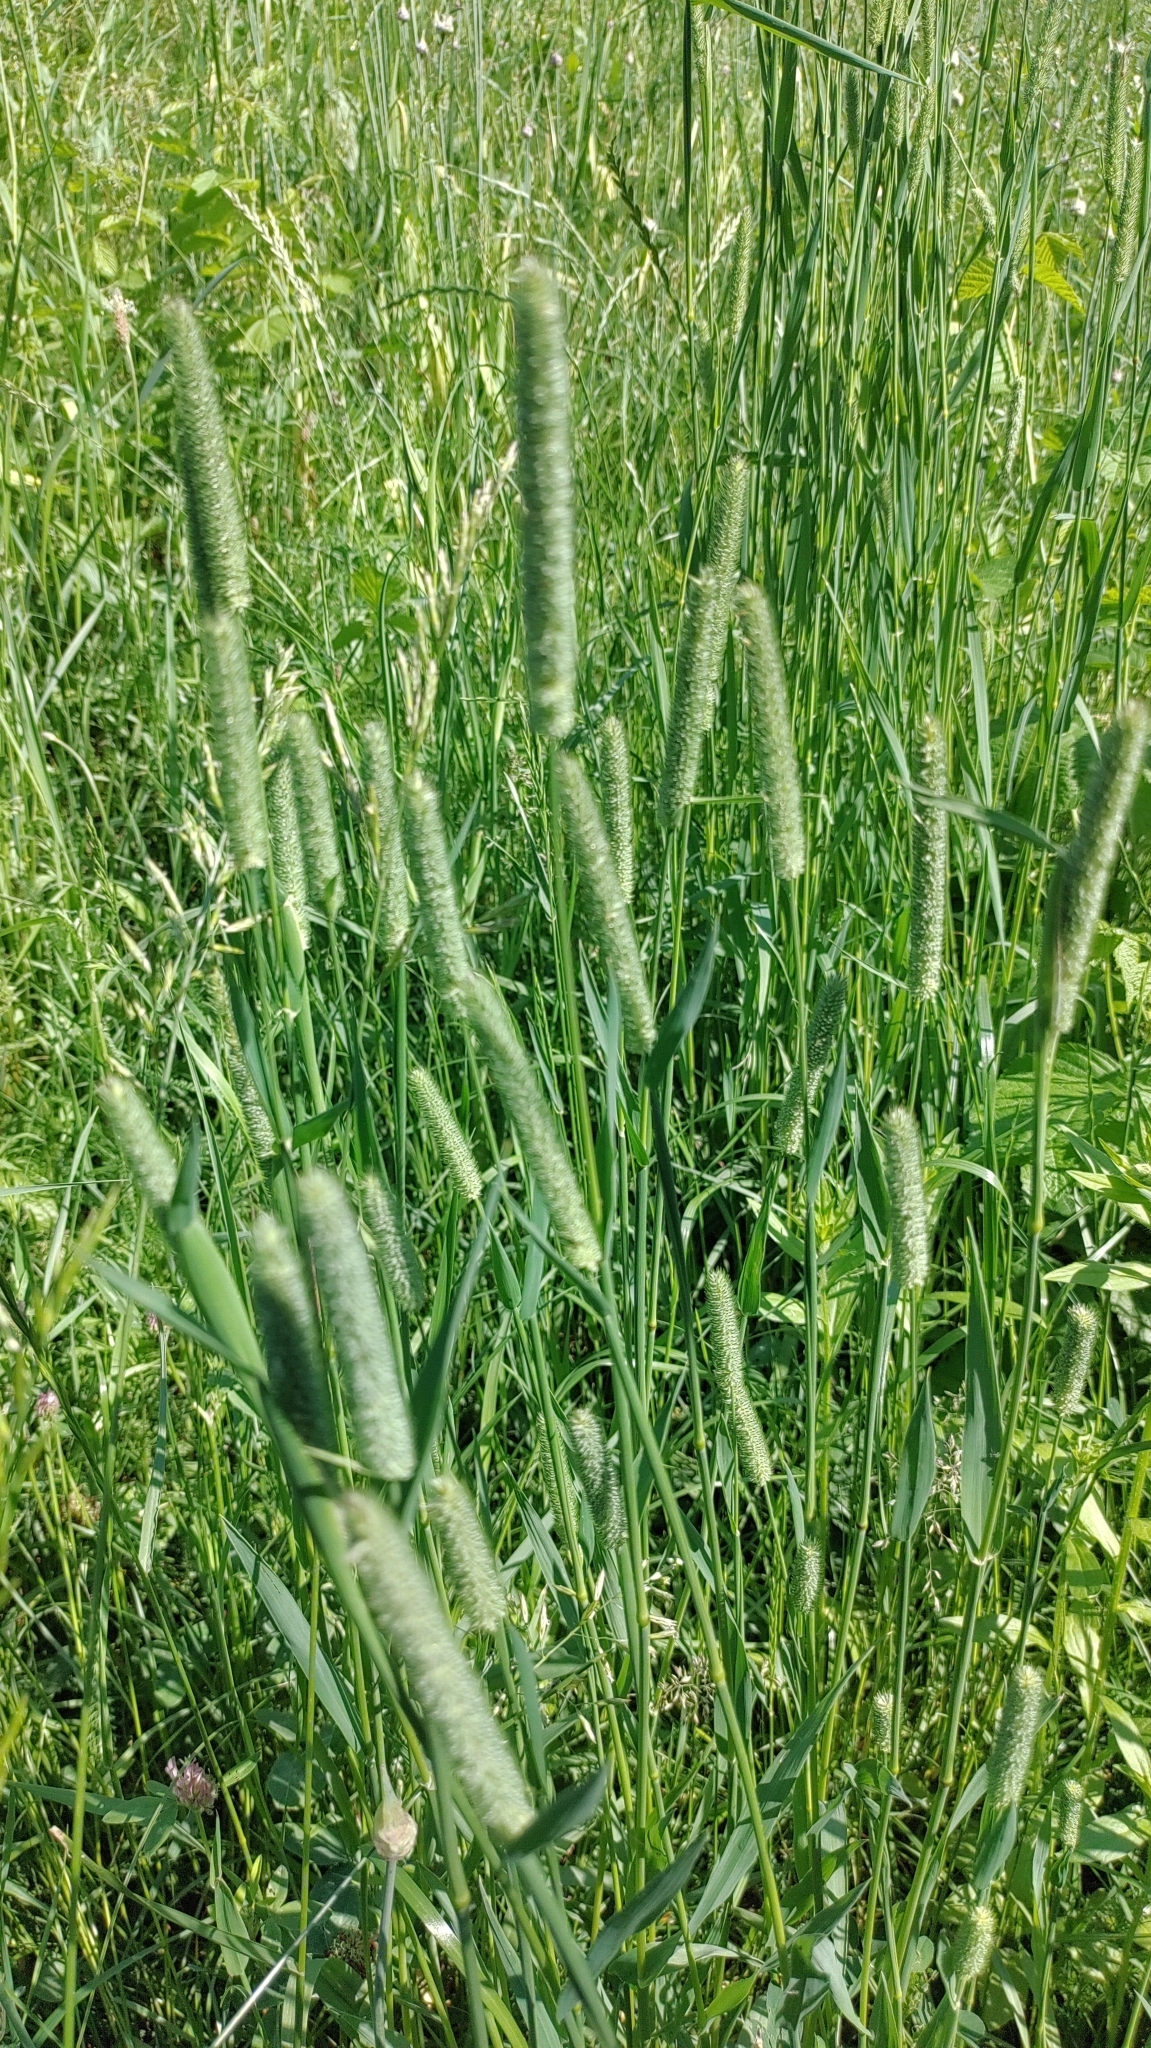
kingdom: Plantae
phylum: Tracheophyta
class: Liliopsida
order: Poales
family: Poaceae
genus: Phleum
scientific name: Phleum pratense
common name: Timothy grass
